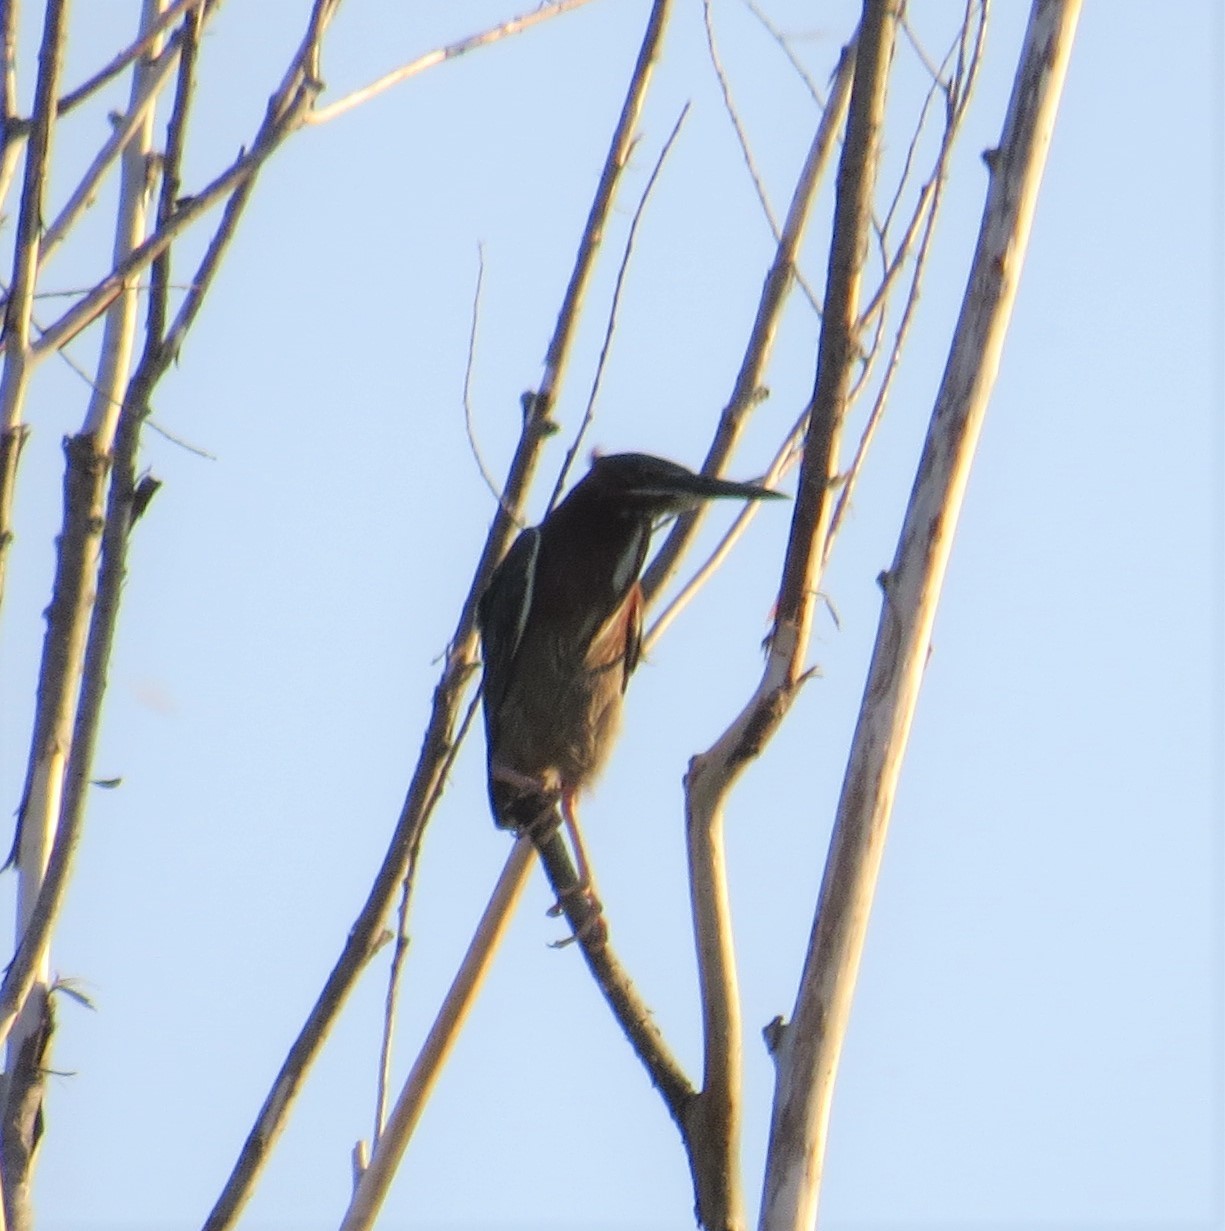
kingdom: Animalia
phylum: Chordata
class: Aves
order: Pelecaniformes
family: Ardeidae
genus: Butorides
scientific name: Butorides virescens
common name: Green heron
